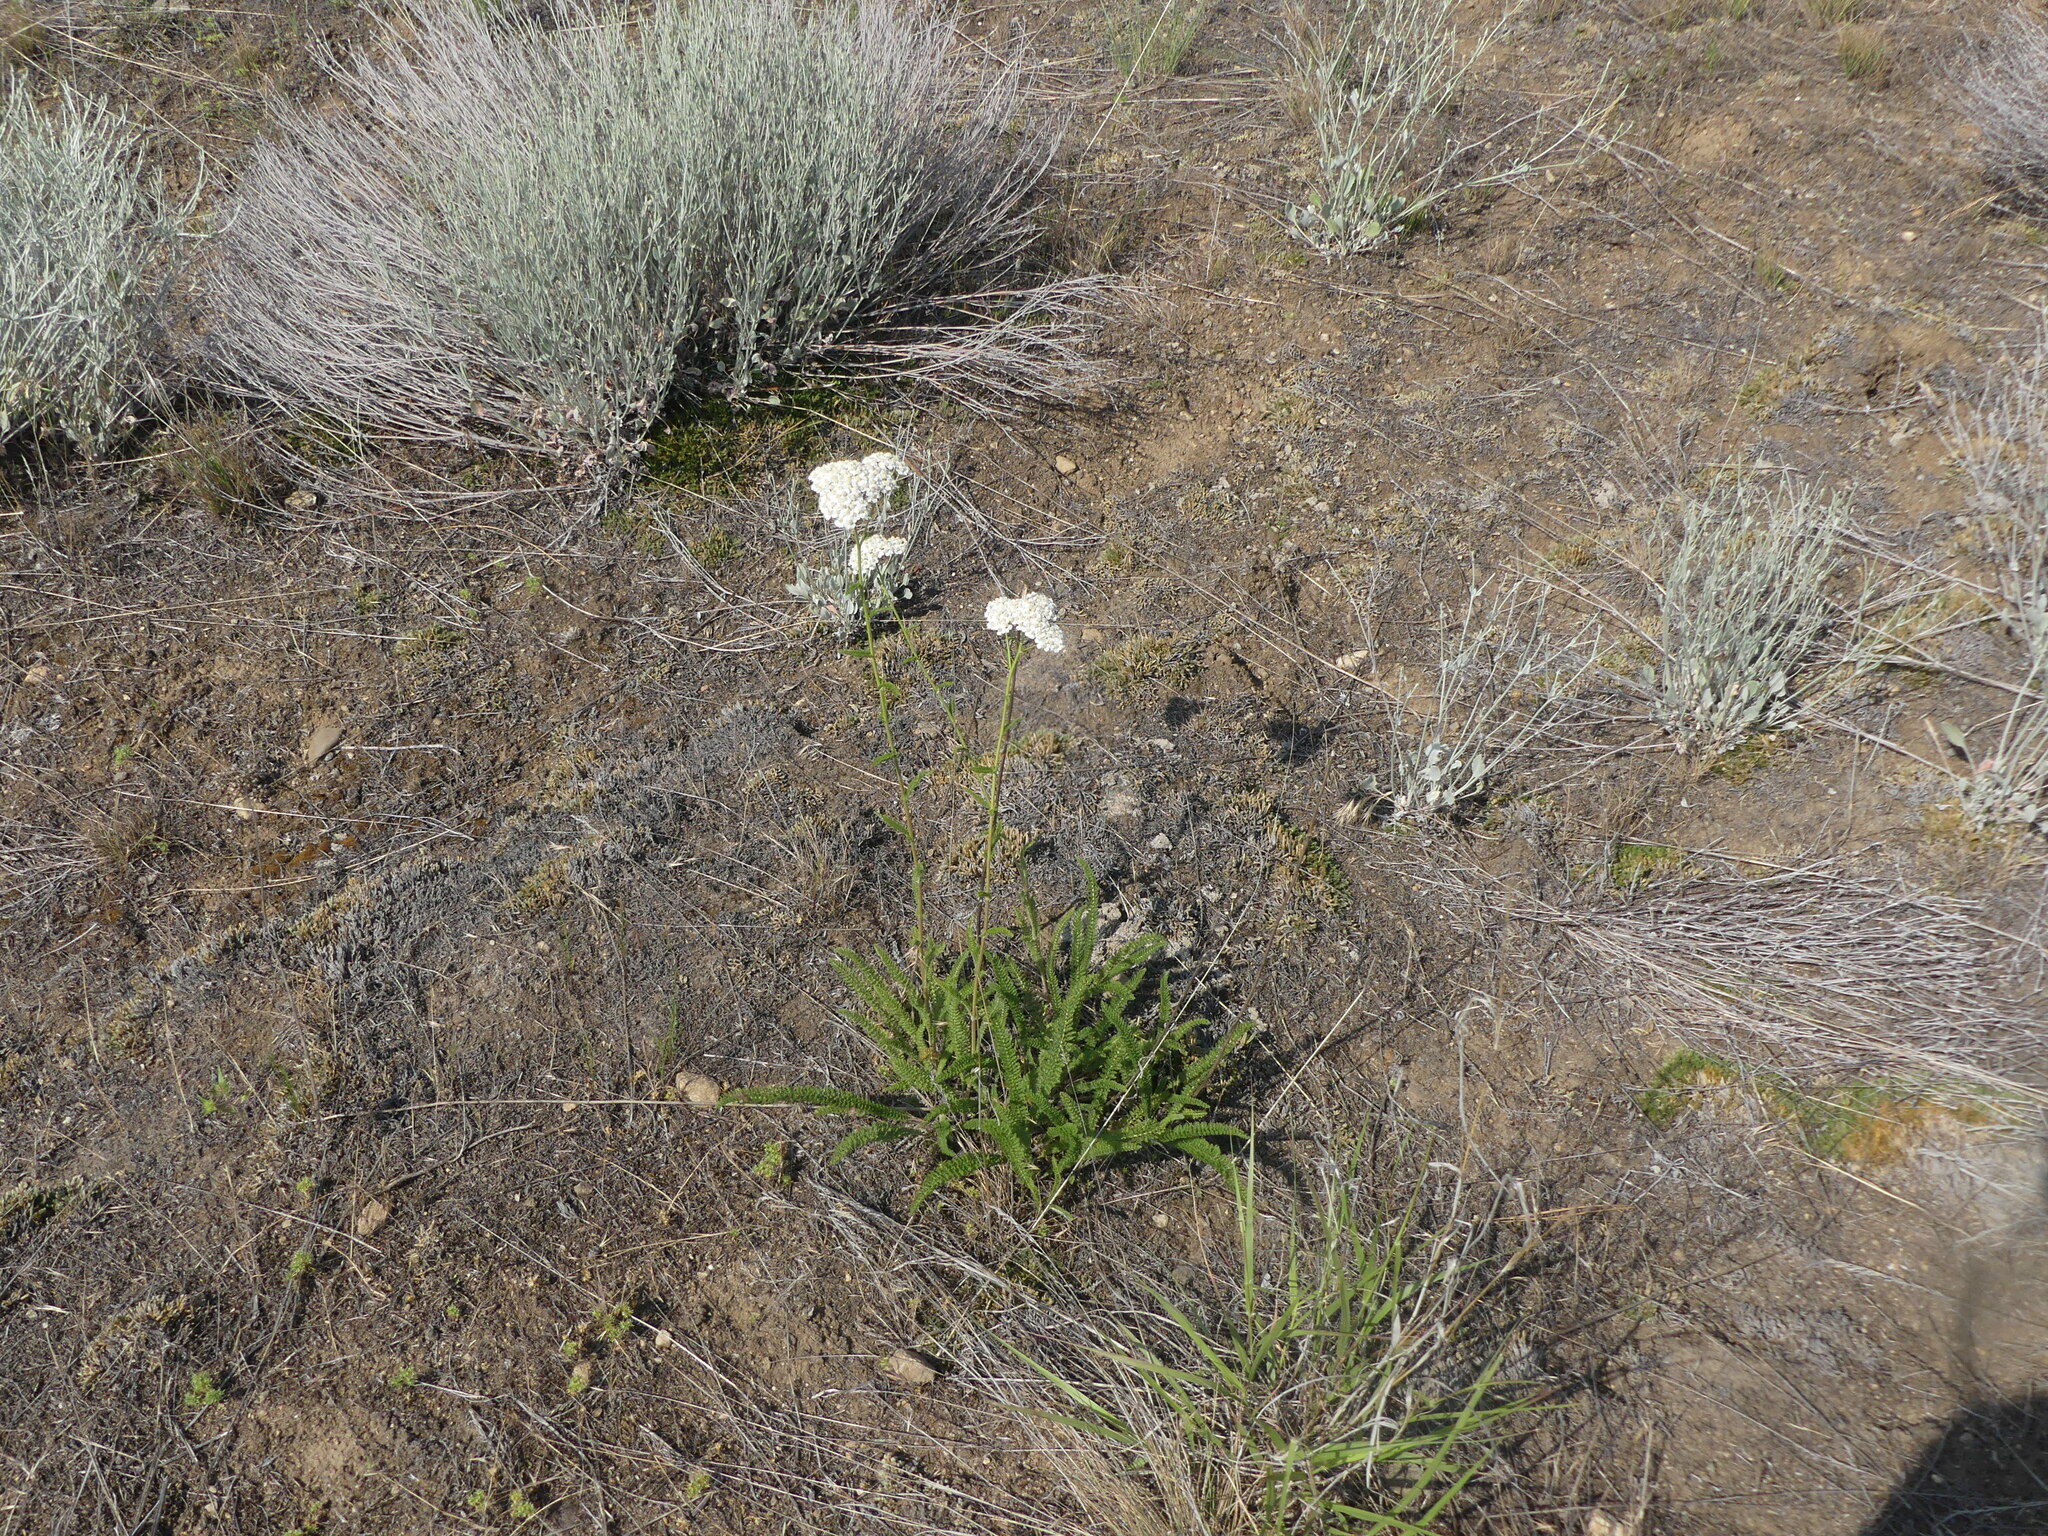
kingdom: Plantae
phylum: Tracheophyta
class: Magnoliopsida
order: Asterales
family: Asteraceae
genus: Achillea
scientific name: Achillea millefolium
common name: Yarrow
